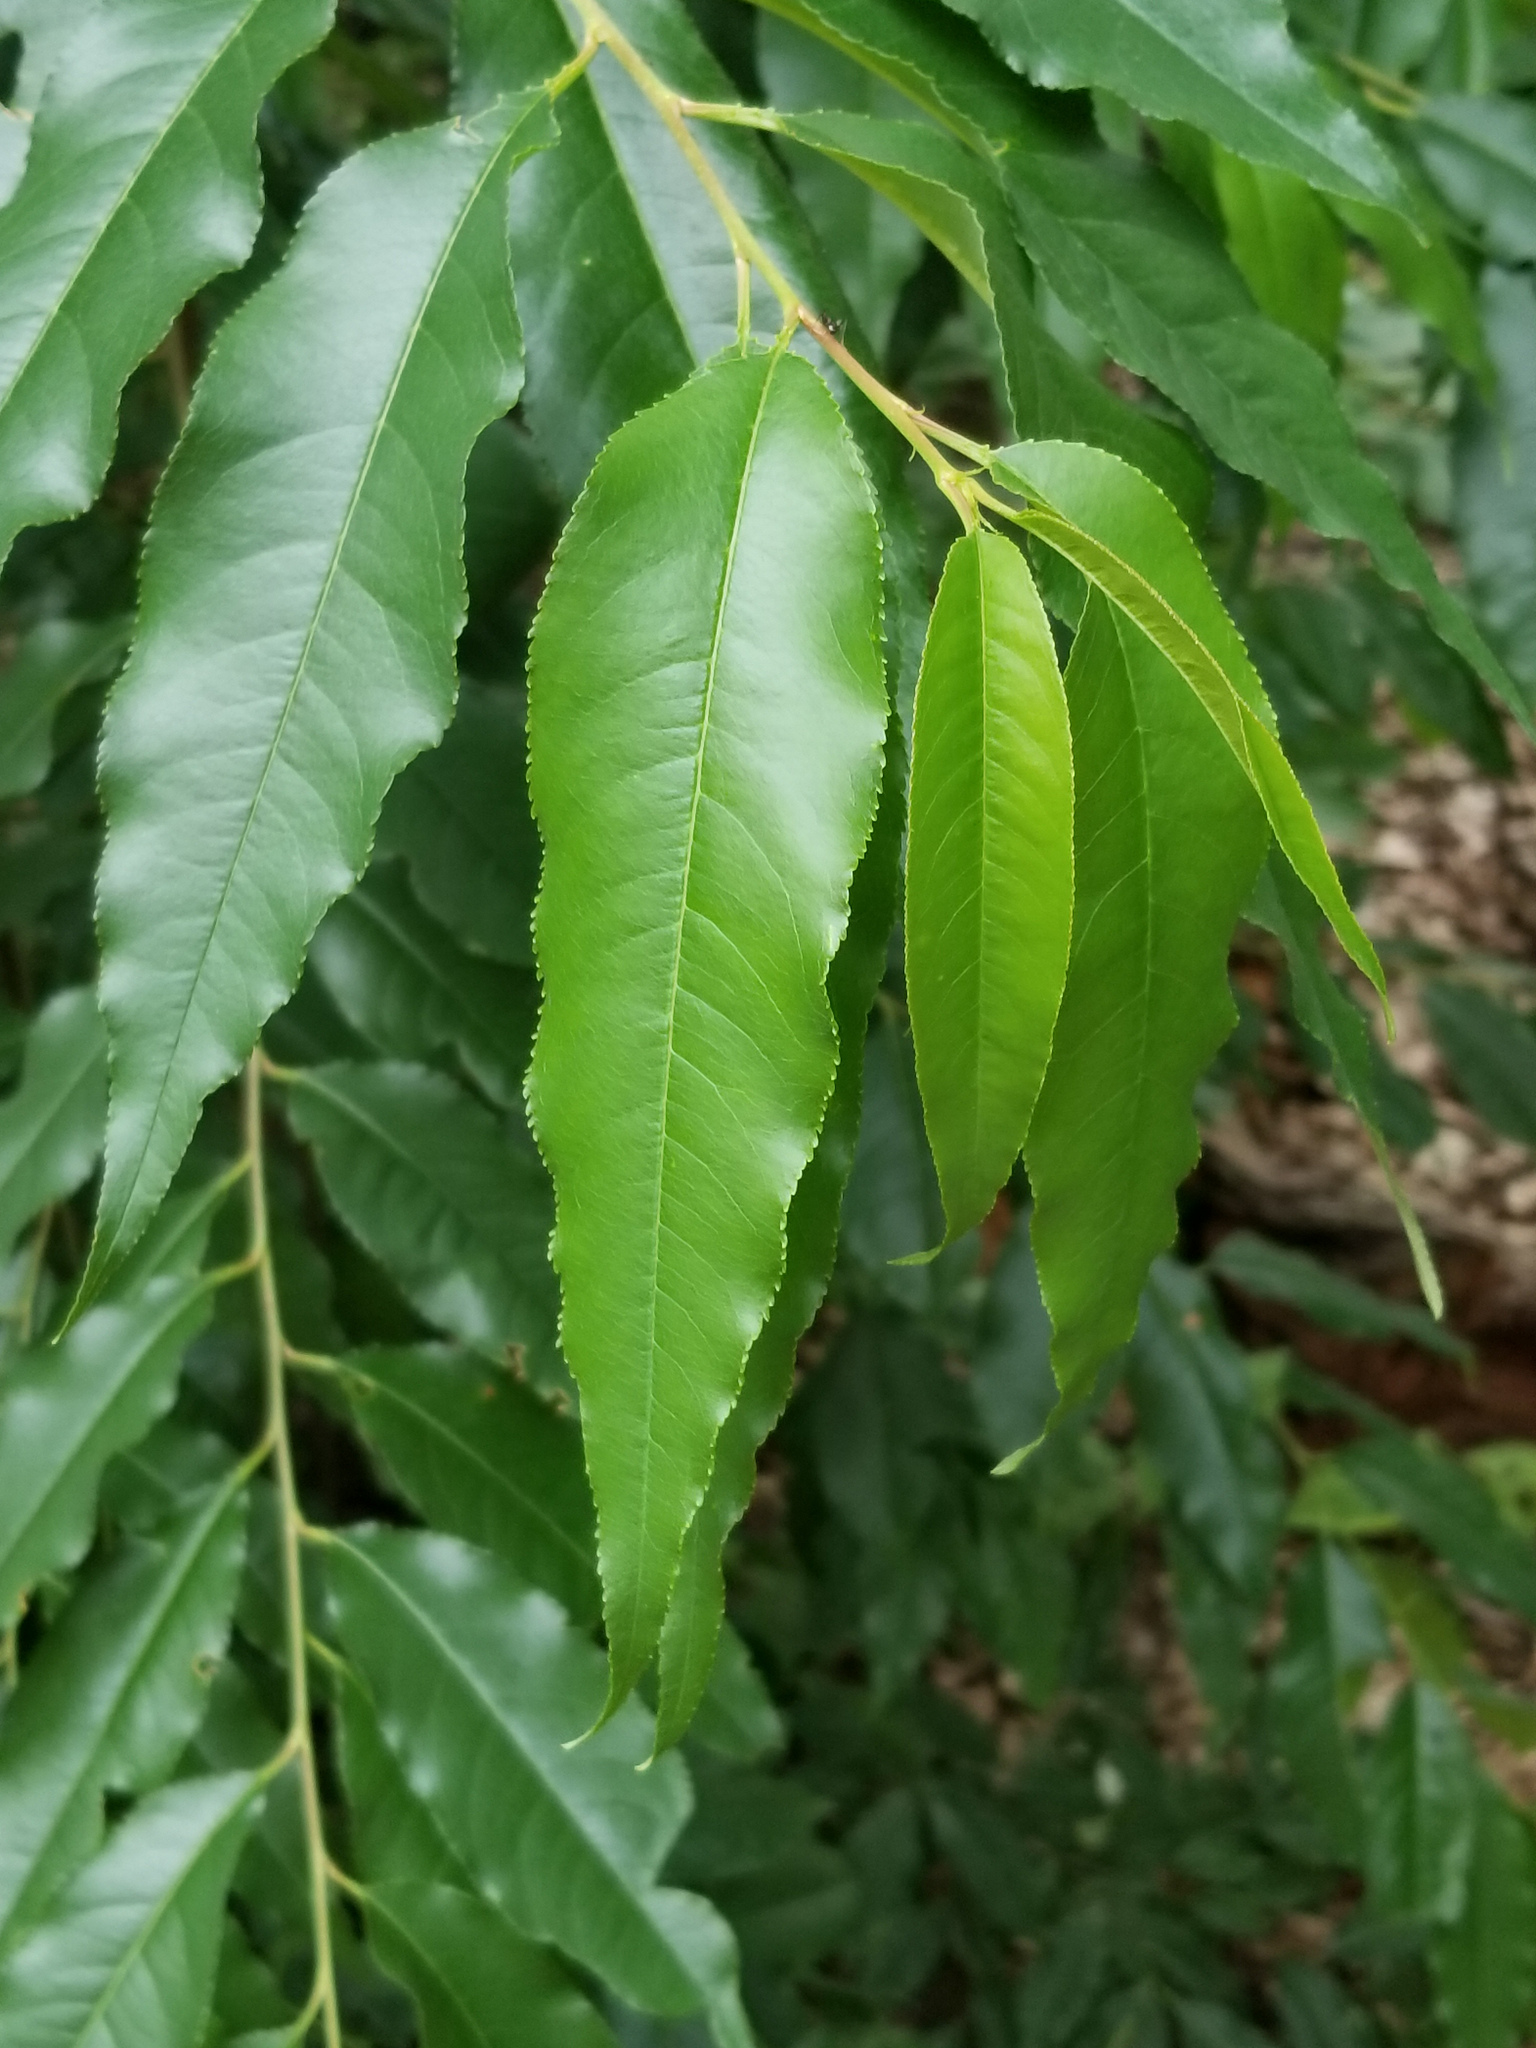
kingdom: Plantae
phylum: Tracheophyta
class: Magnoliopsida
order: Rosales
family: Rosaceae
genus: Prunus
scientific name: Prunus serotina
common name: Black cherry
